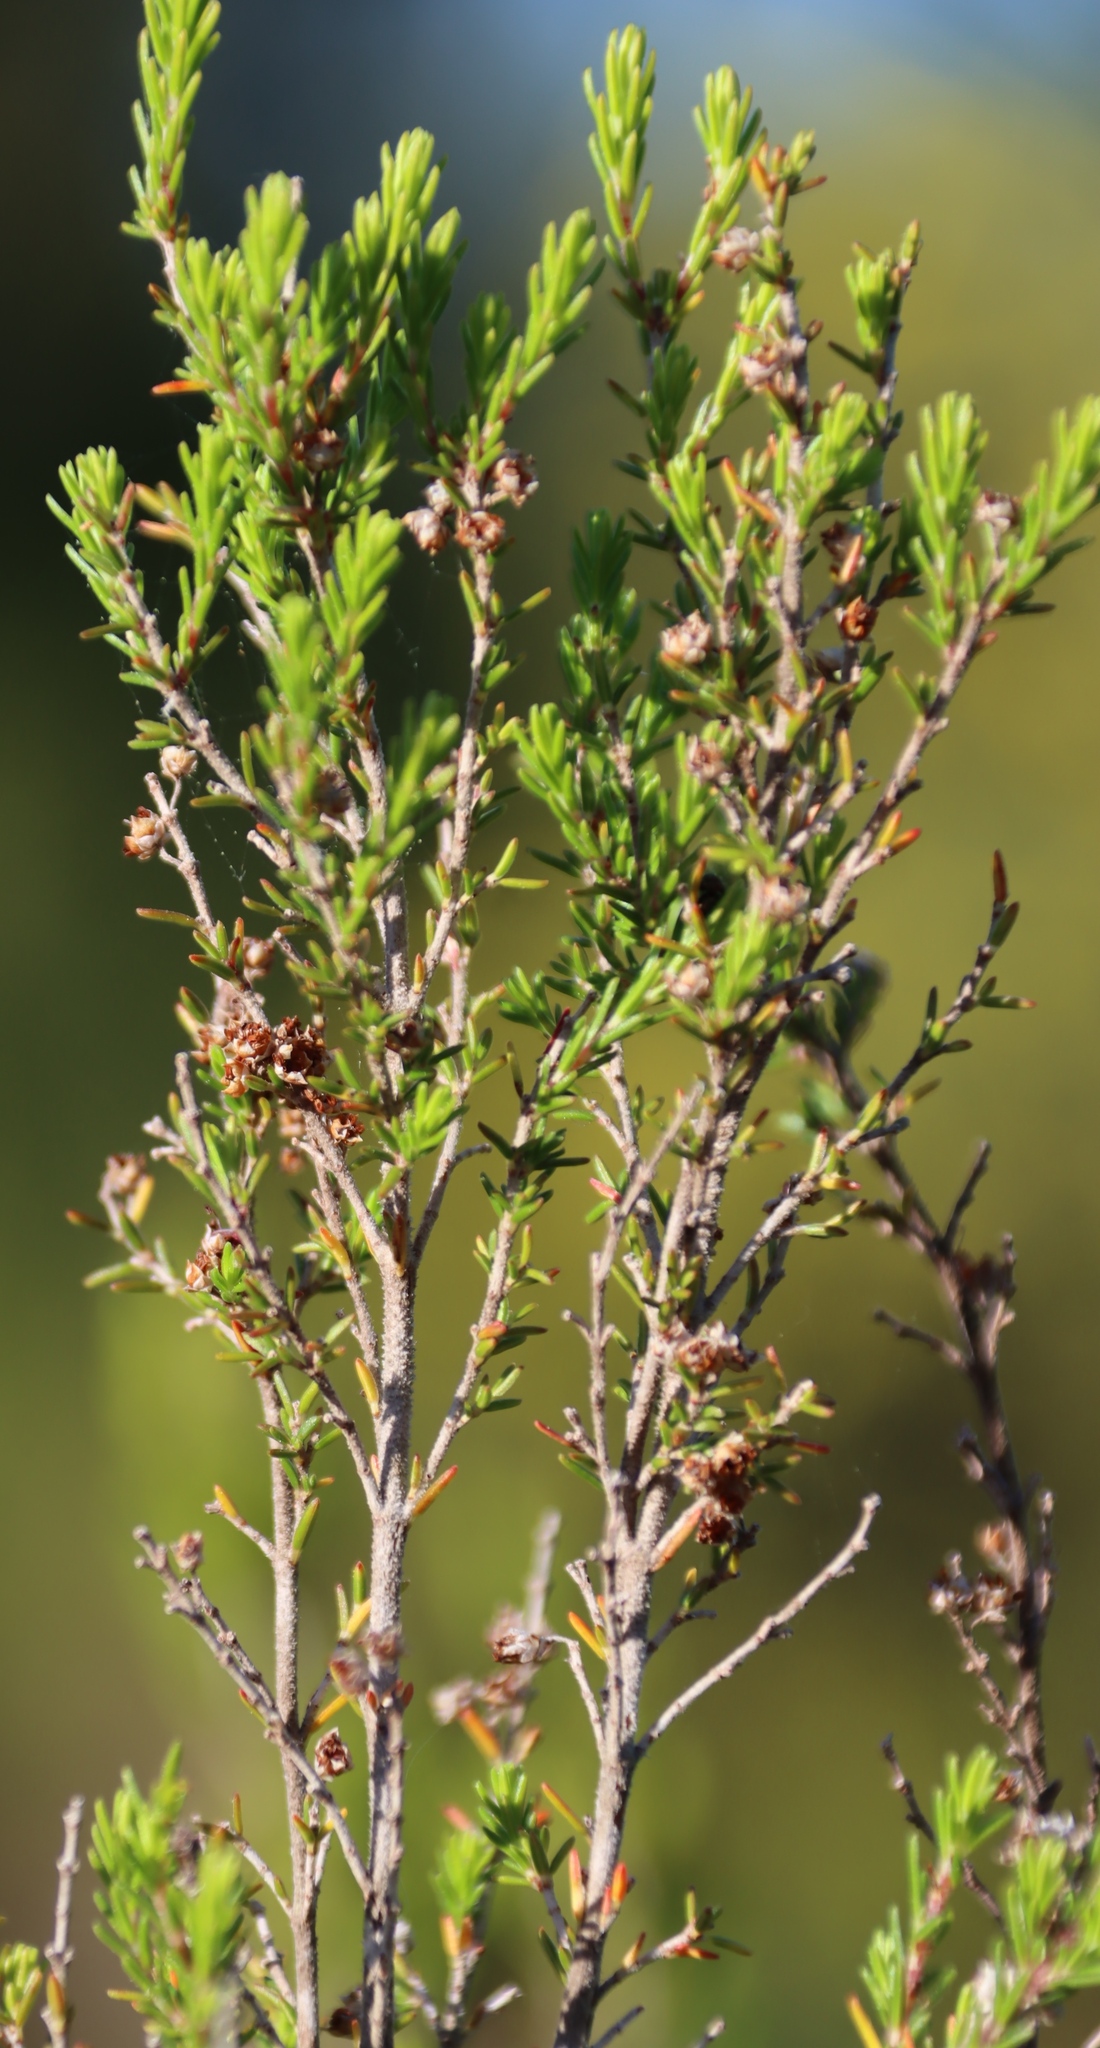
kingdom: Plantae
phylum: Tracheophyta
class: Magnoliopsida
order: Ericales
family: Ericaceae
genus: Erica
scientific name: Erica peltata
